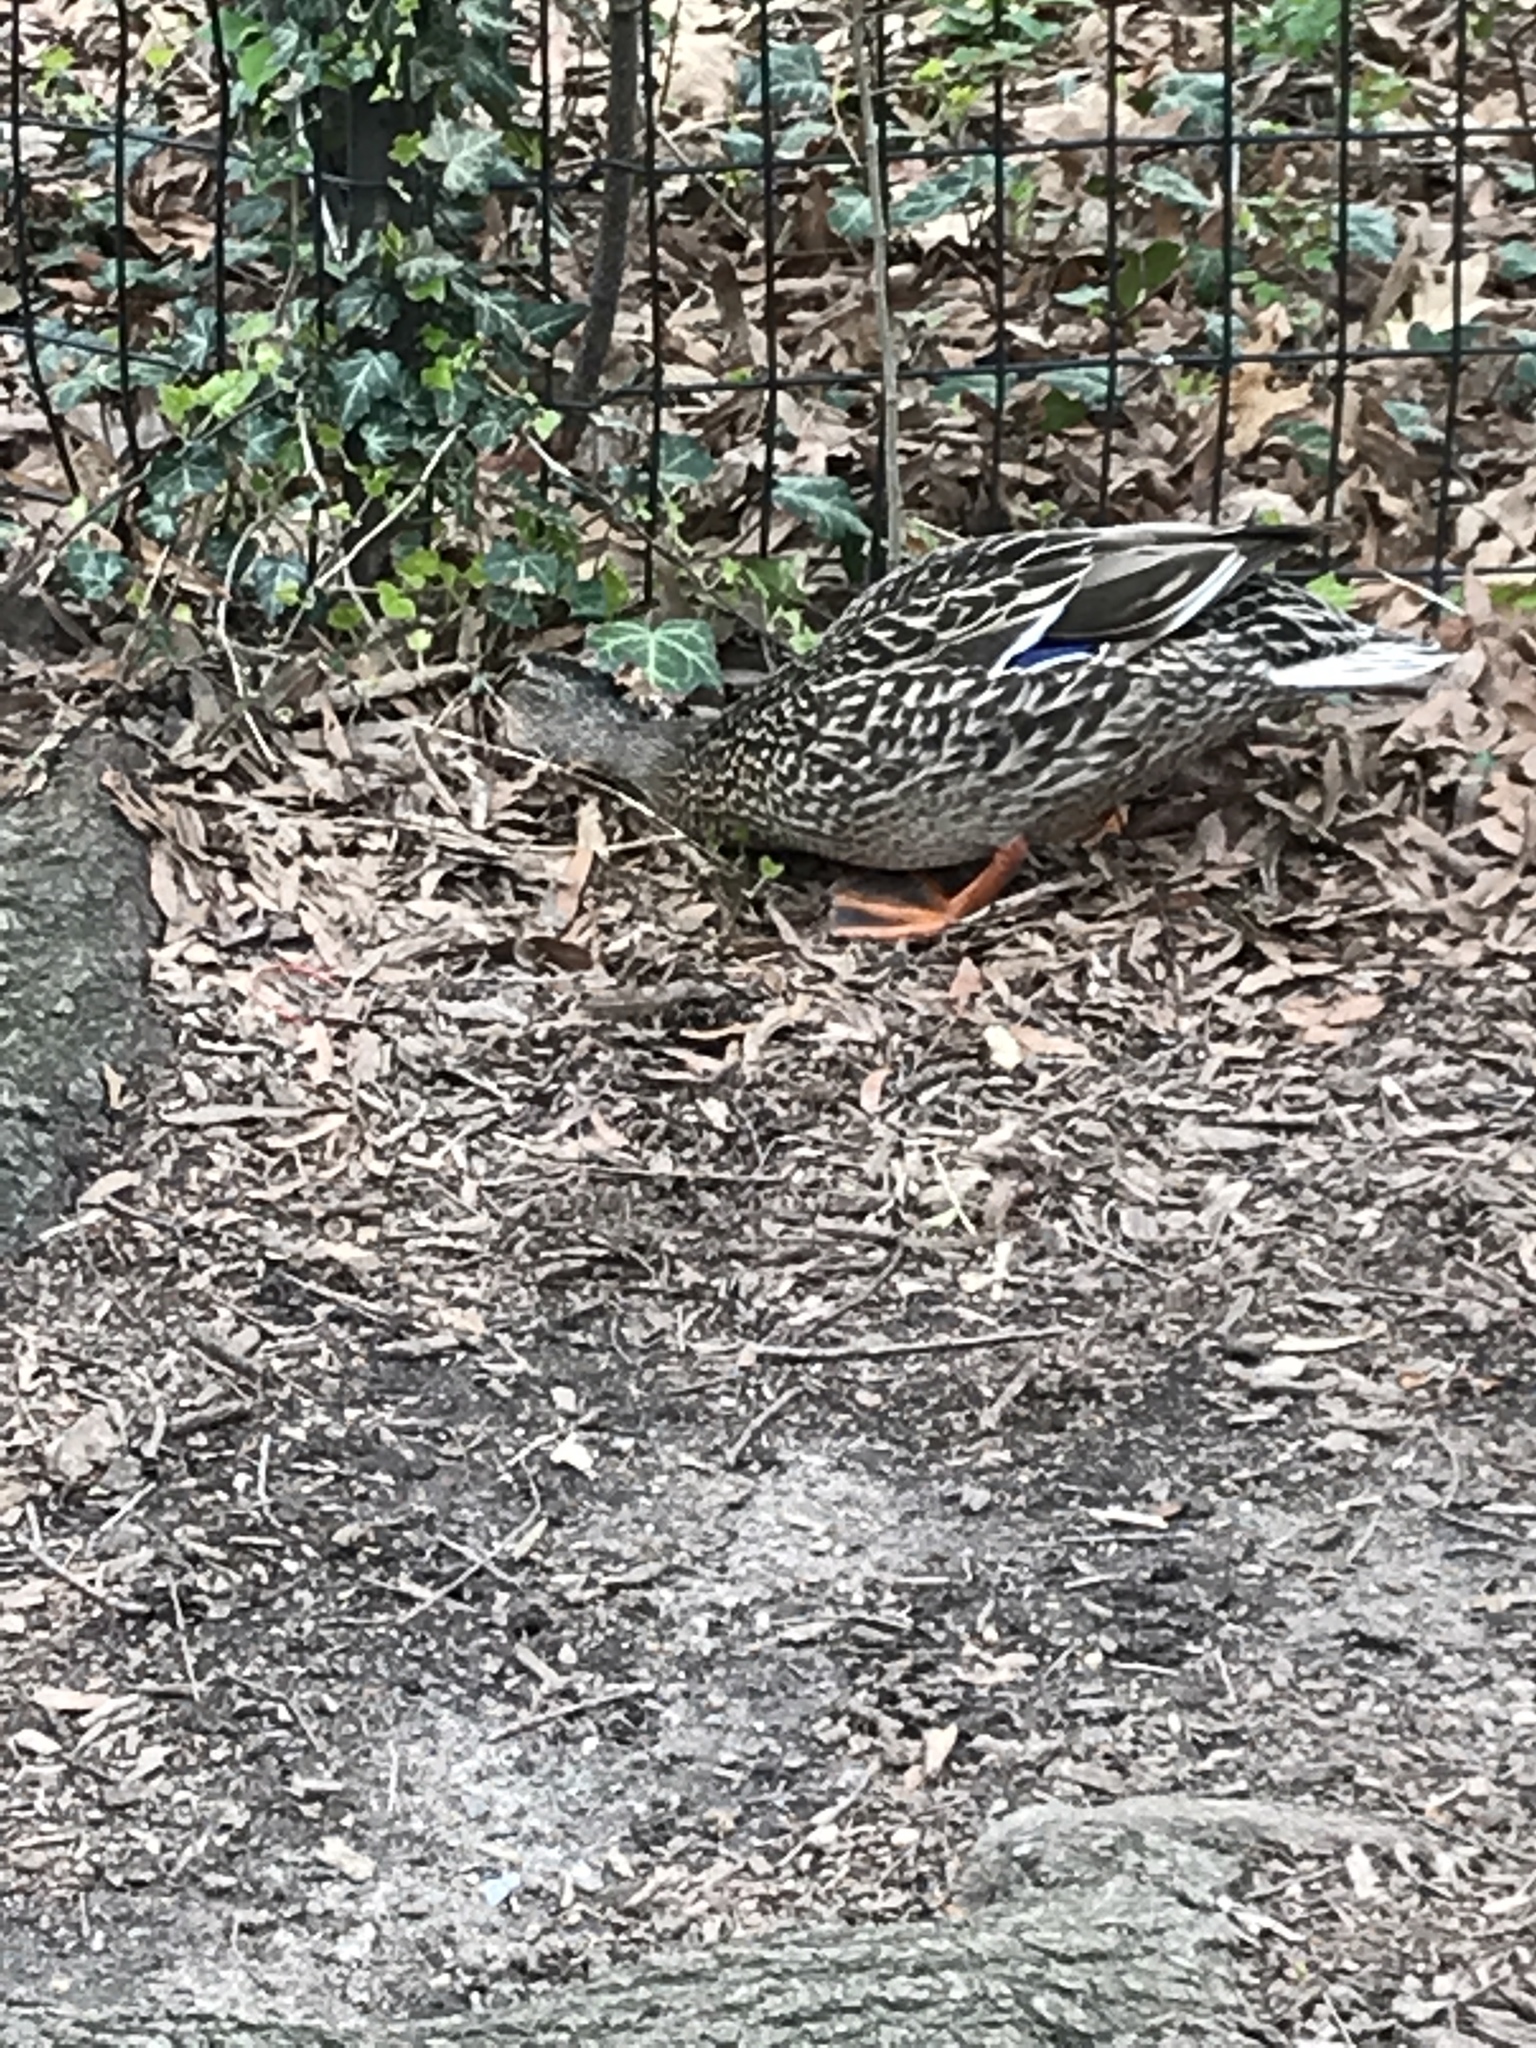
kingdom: Animalia
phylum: Chordata
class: Aves
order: Anseriformes
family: Anatidae
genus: Anas
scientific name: Anas platyrhynchos
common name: Mallard
